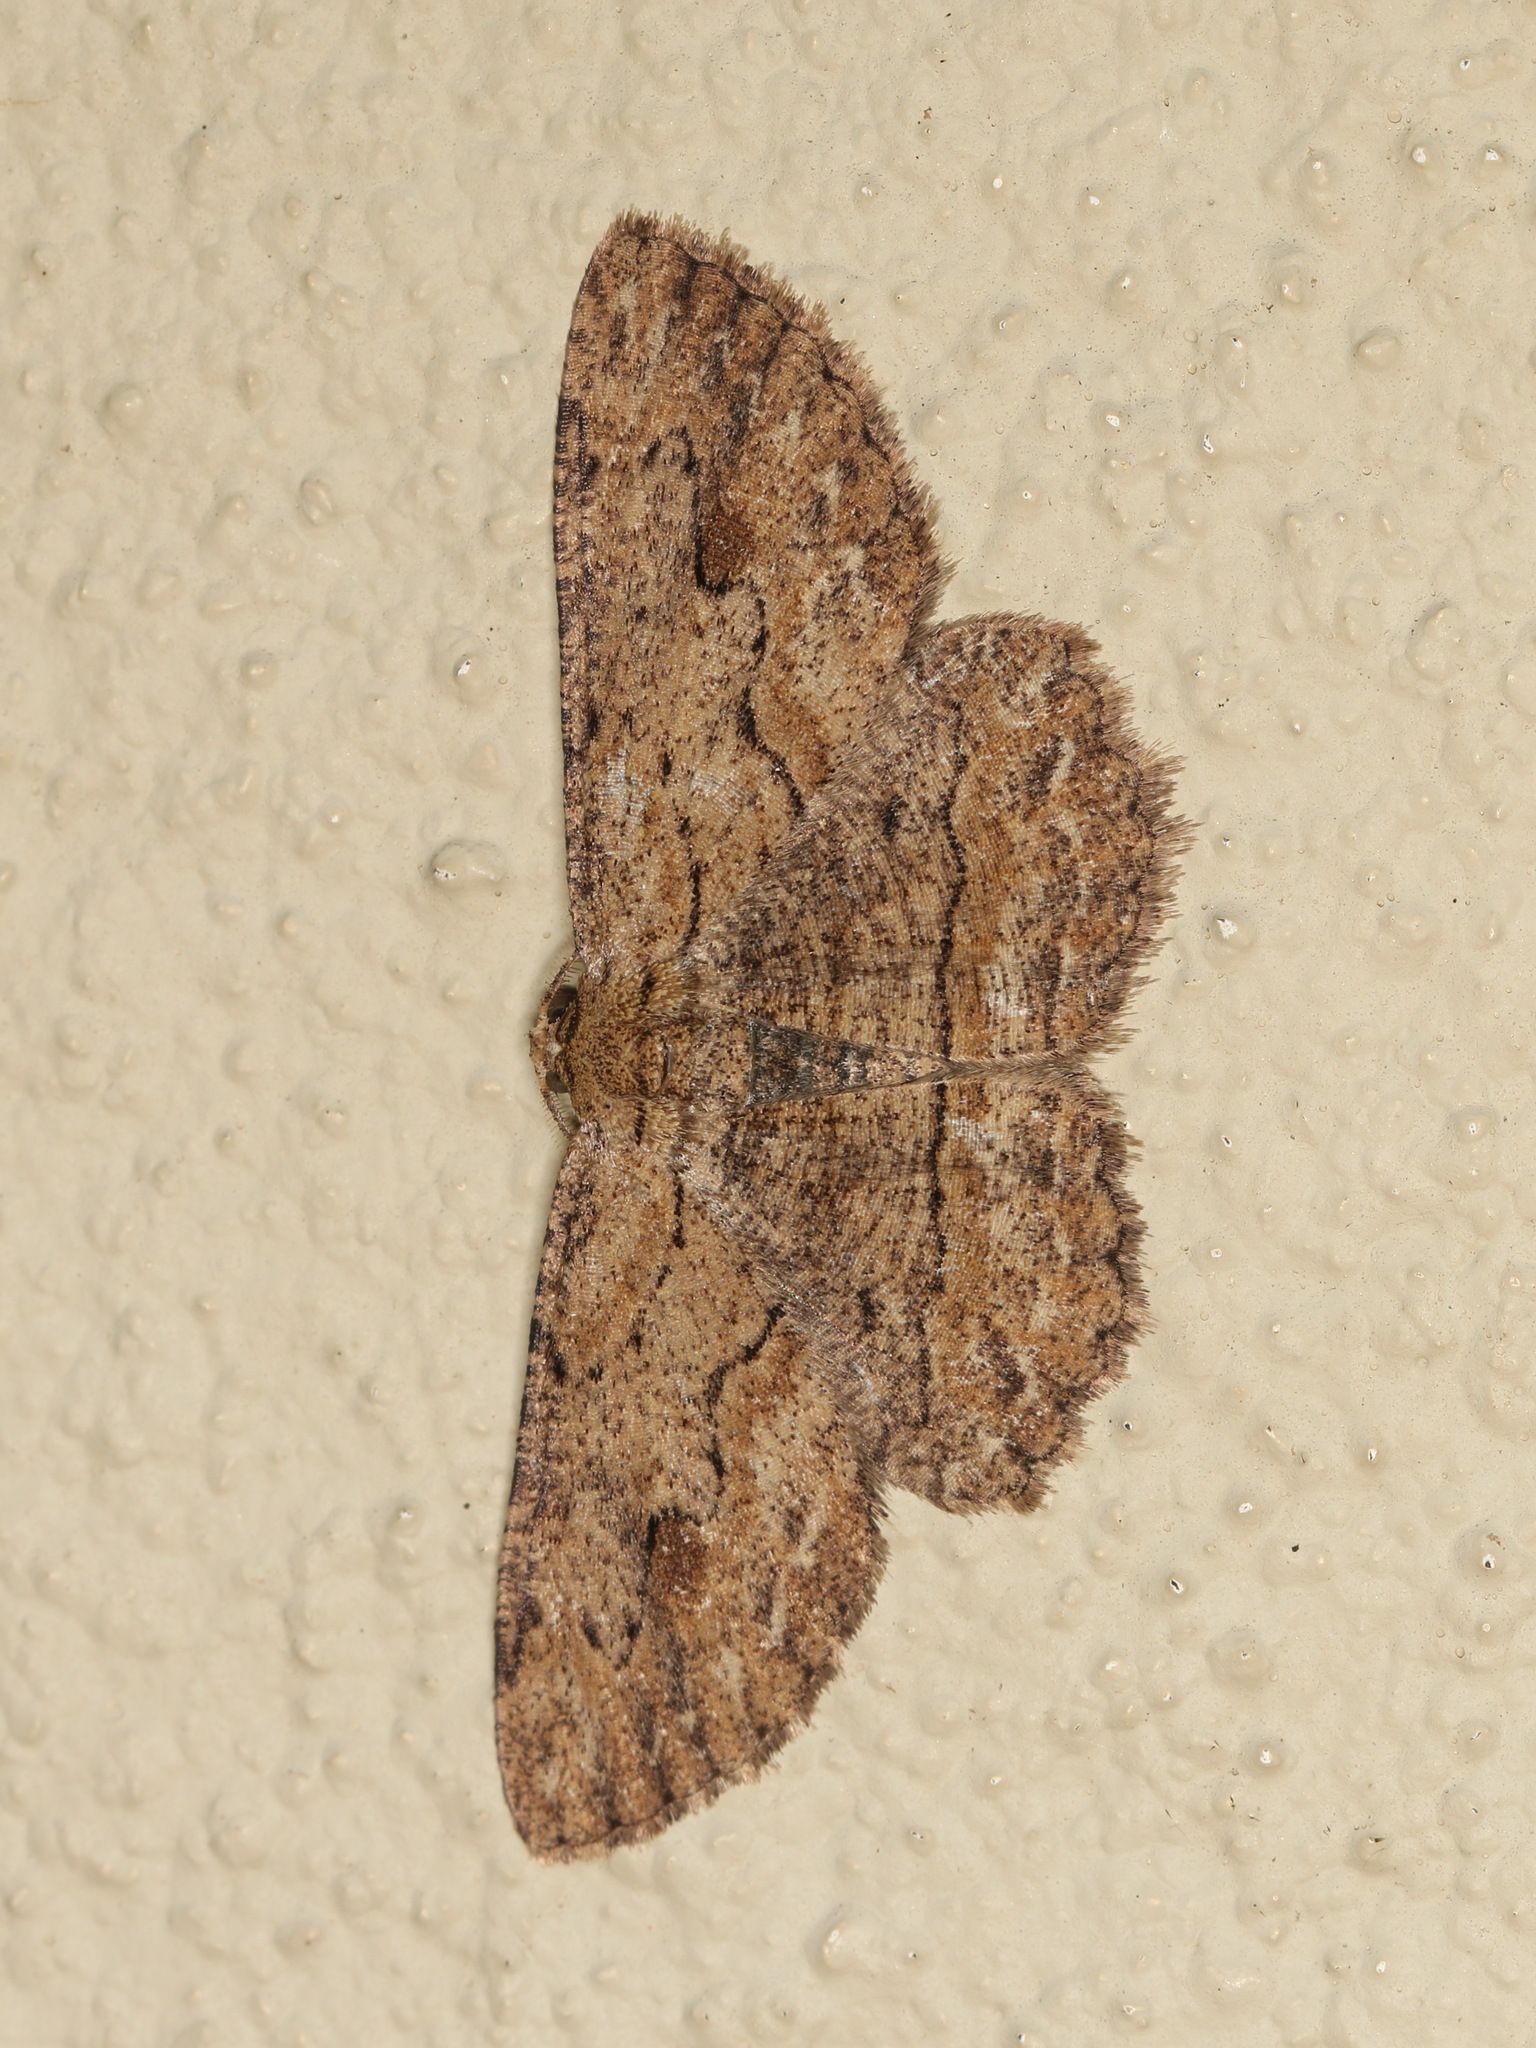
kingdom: Animalia
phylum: Arthropoda
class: Insecta
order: Lepidoptera
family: Geometridae
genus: Ectropis
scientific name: Ectropis excursaria
